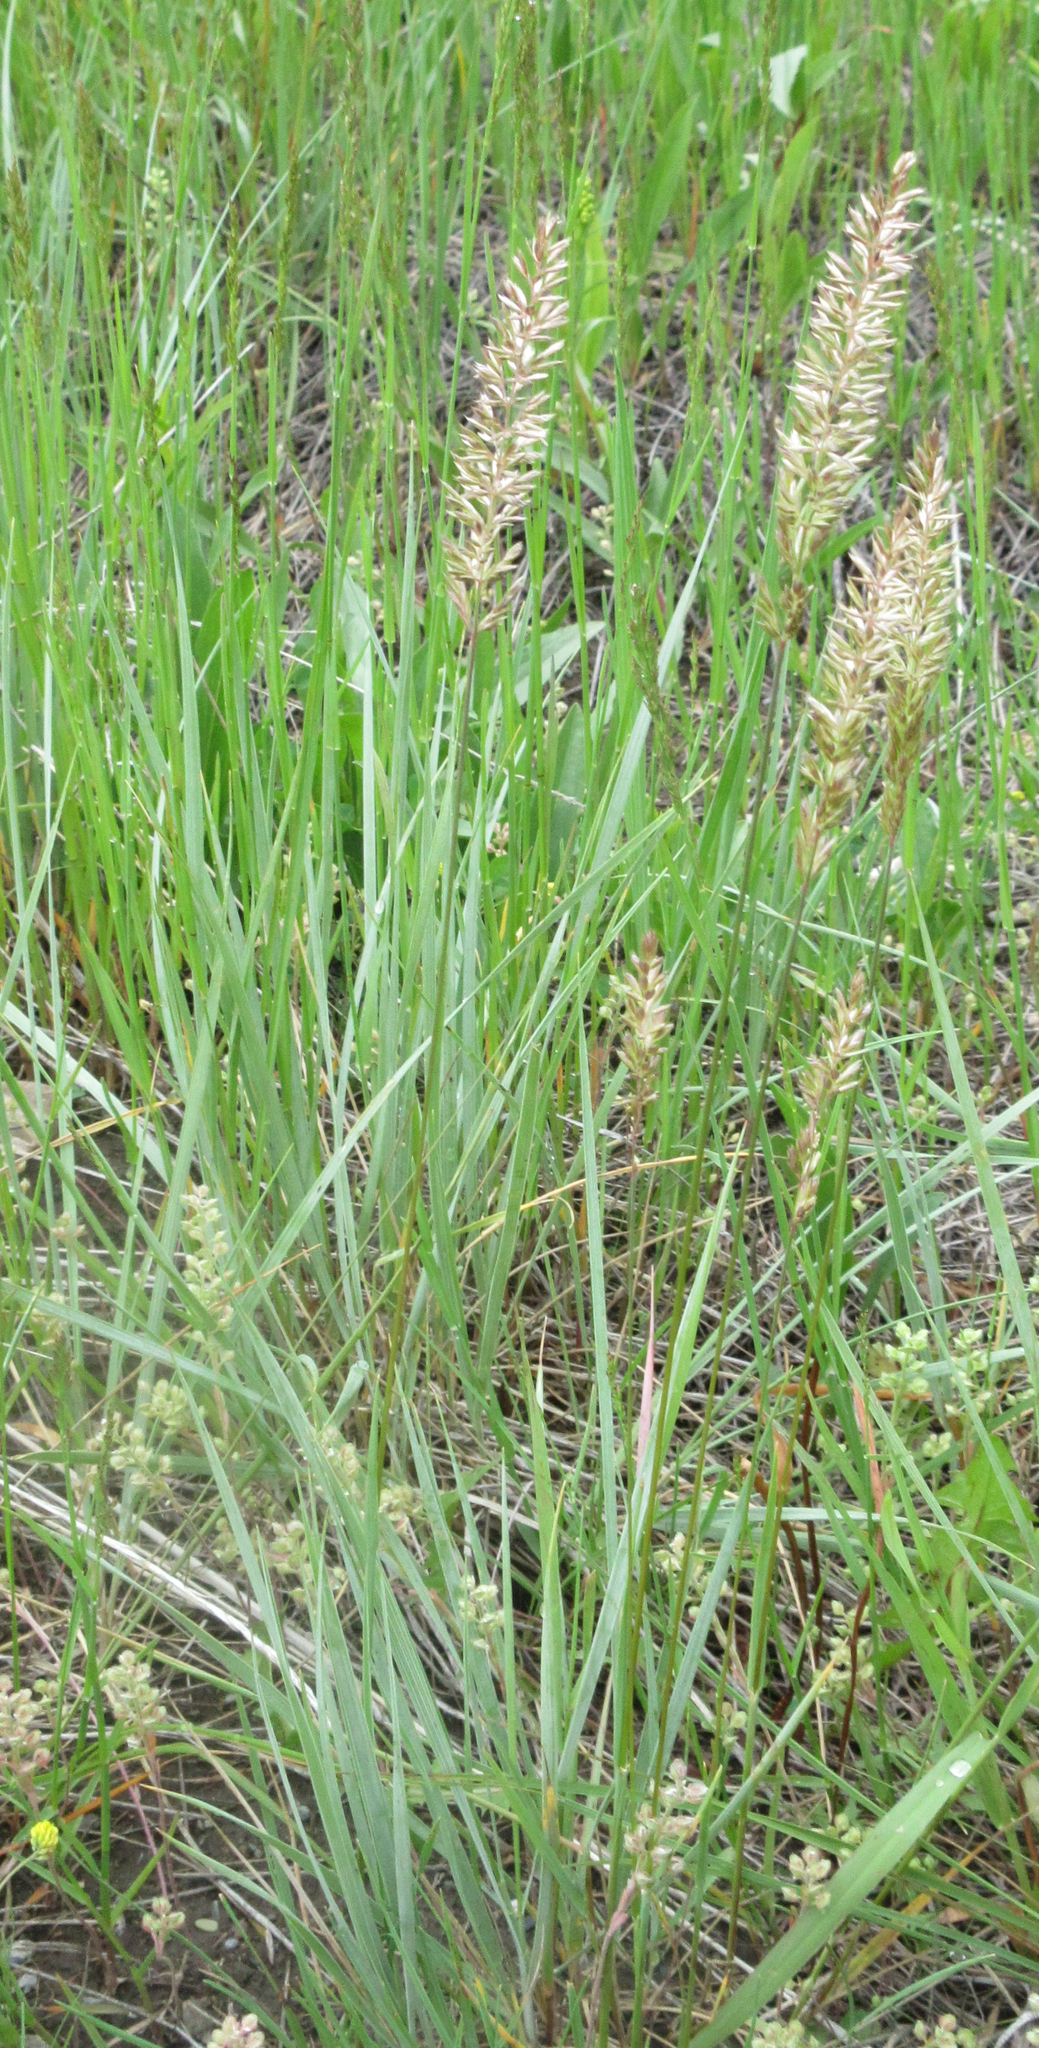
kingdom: Plantae
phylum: Tracheophyta
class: Liliopsida
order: Poales
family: Poaceae
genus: Koeleria
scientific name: Koeleria macrantha
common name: Crested hair-grass
